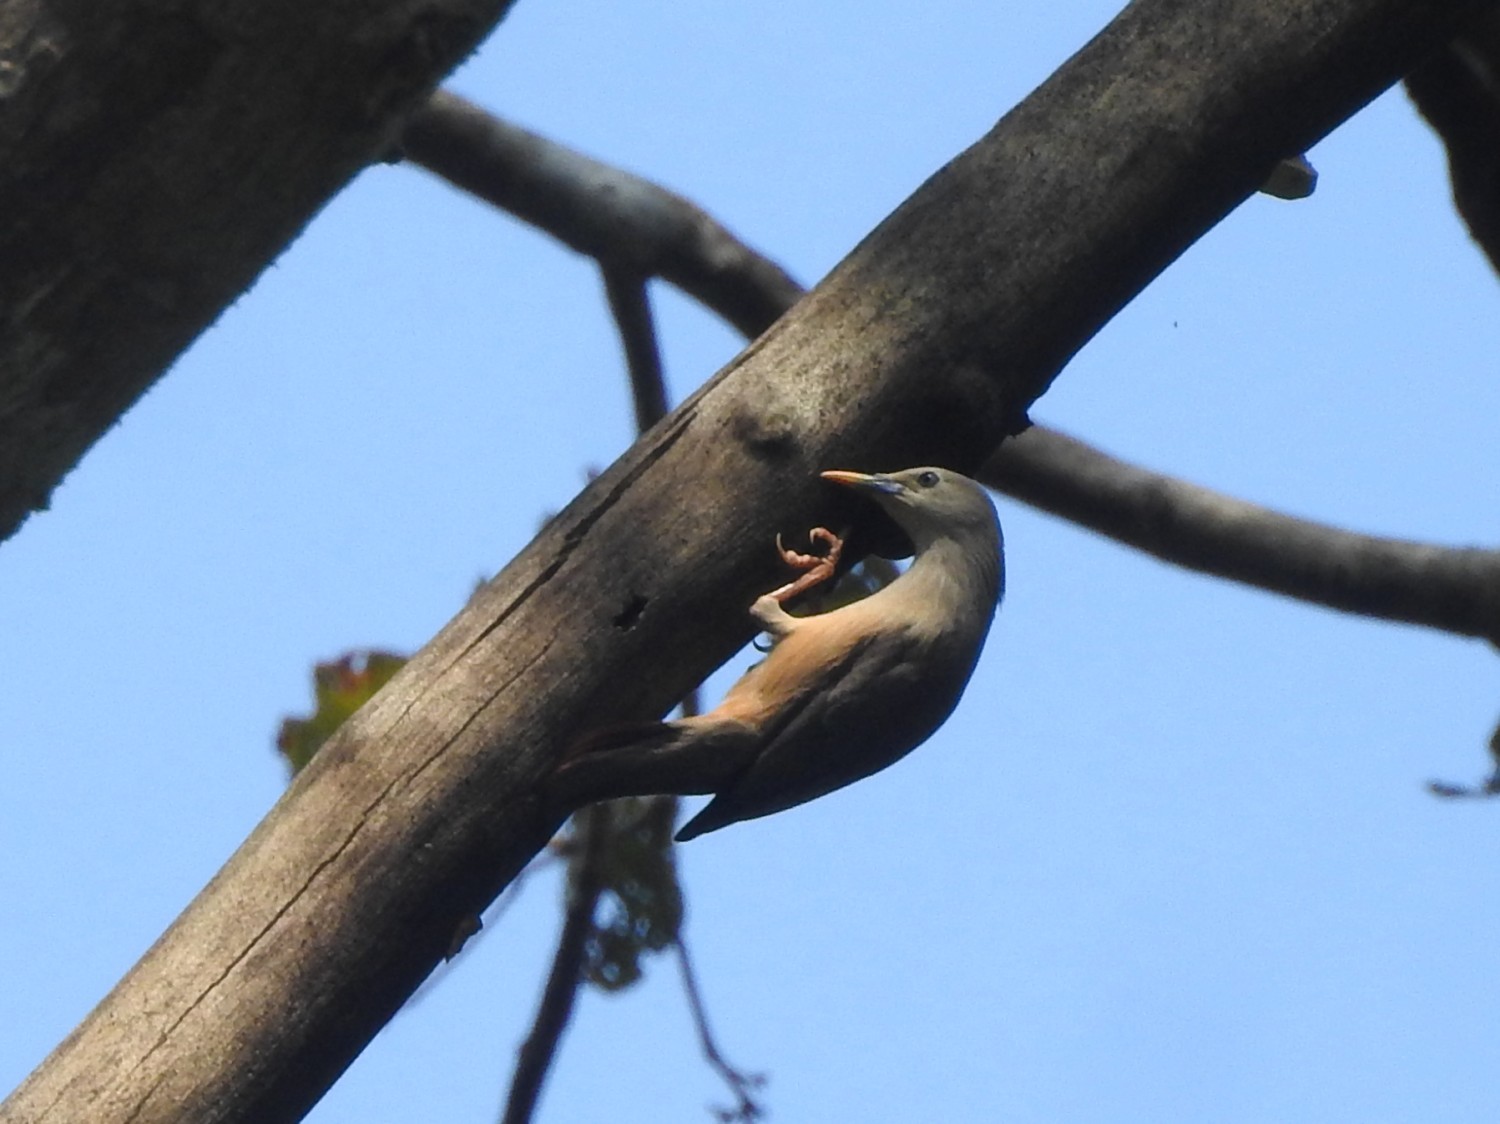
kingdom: Animalia
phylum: Chordata
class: Aves
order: Passeriformes
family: Sturnidae
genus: Sturnia
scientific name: Sturnia malabarica
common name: Chestnut-tailed starling
